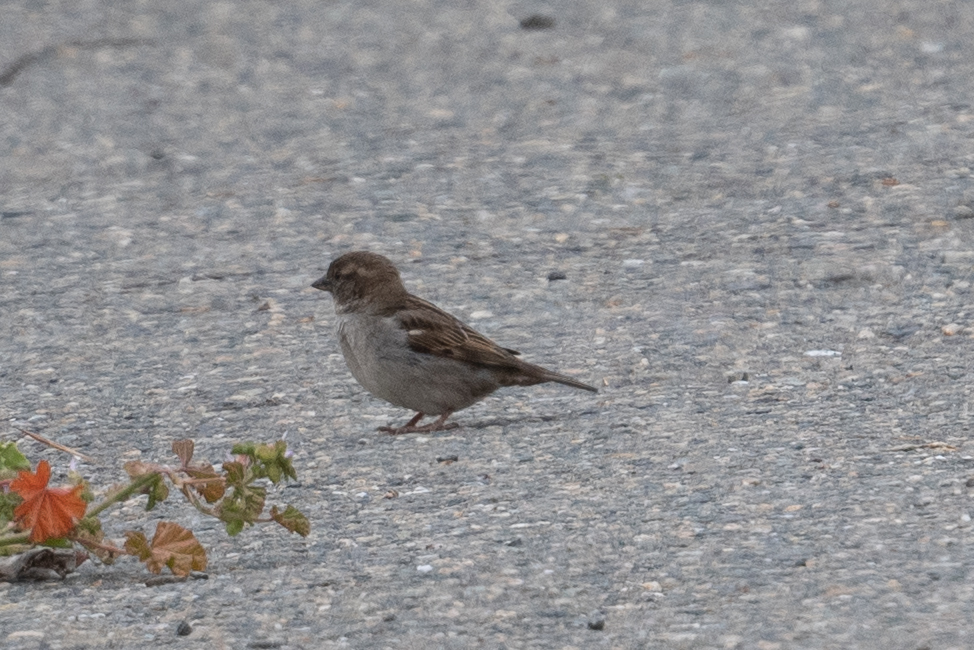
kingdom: Animalia
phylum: Chordata
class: Aves
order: Passeriformes
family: Passeridae
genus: Passer
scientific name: Passer domesticus
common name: House sparrow
